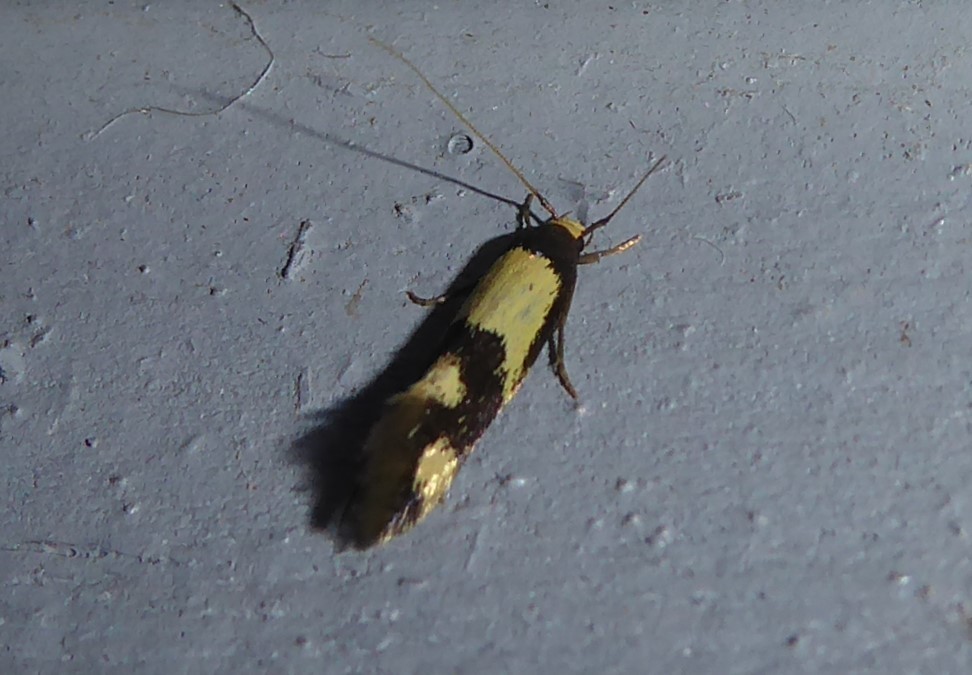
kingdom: Animalia
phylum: Arthropoda
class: Insecta
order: Lepidoptera
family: Tineidae
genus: Opogona
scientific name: Opogona comptella
